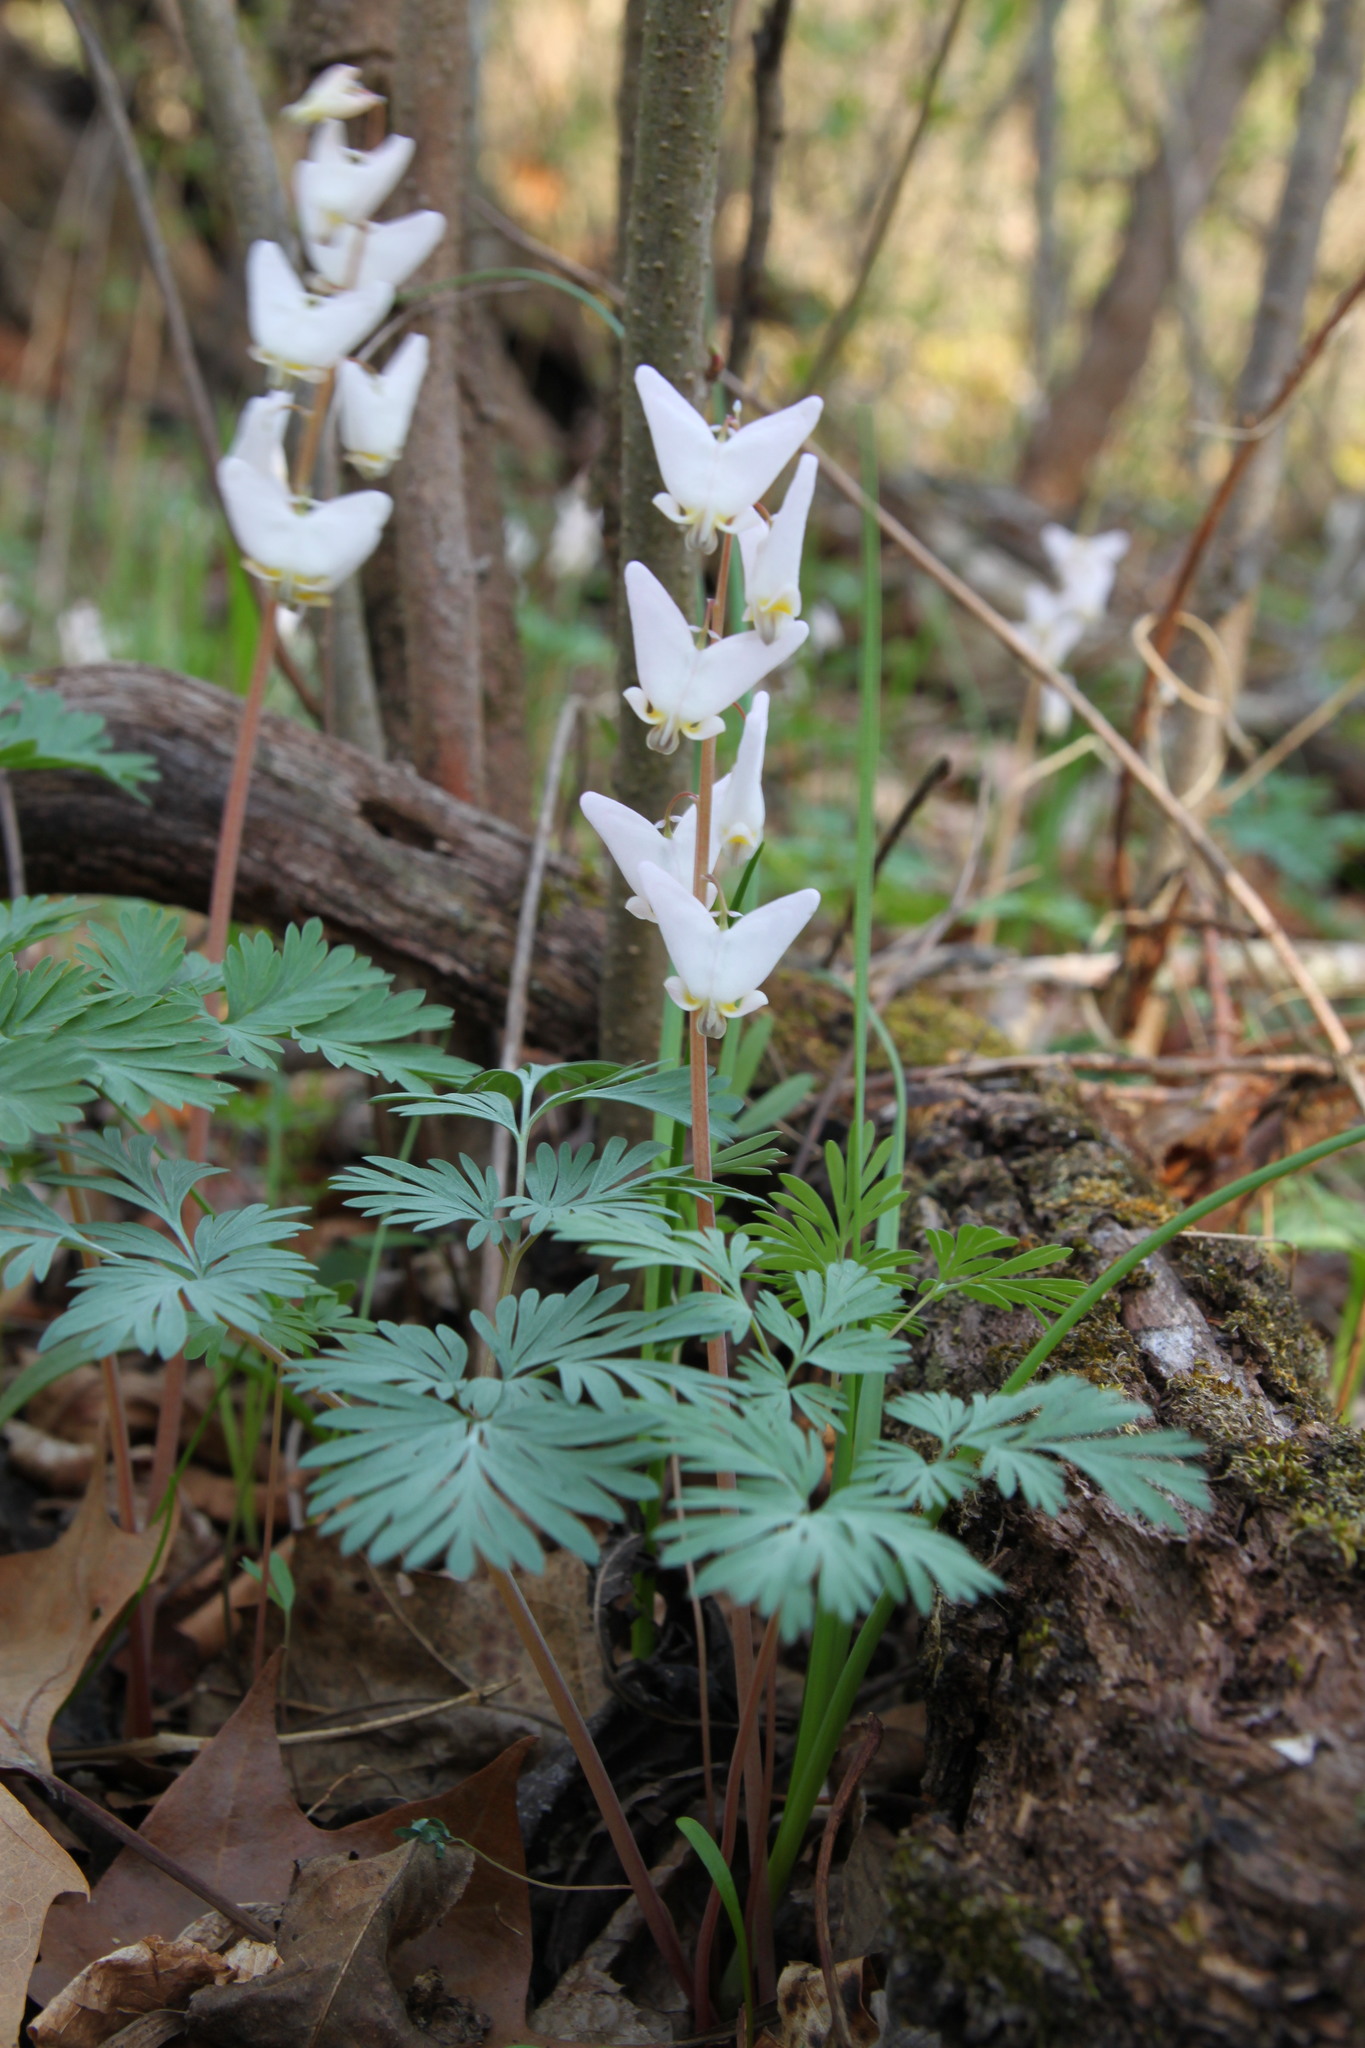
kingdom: Plantae
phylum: Tracheophyta
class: Magnoliopsida
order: Ranunculales
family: Papaveraceae
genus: Dicentra
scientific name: Dicentra cucullaria
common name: Dutchman's breeches
